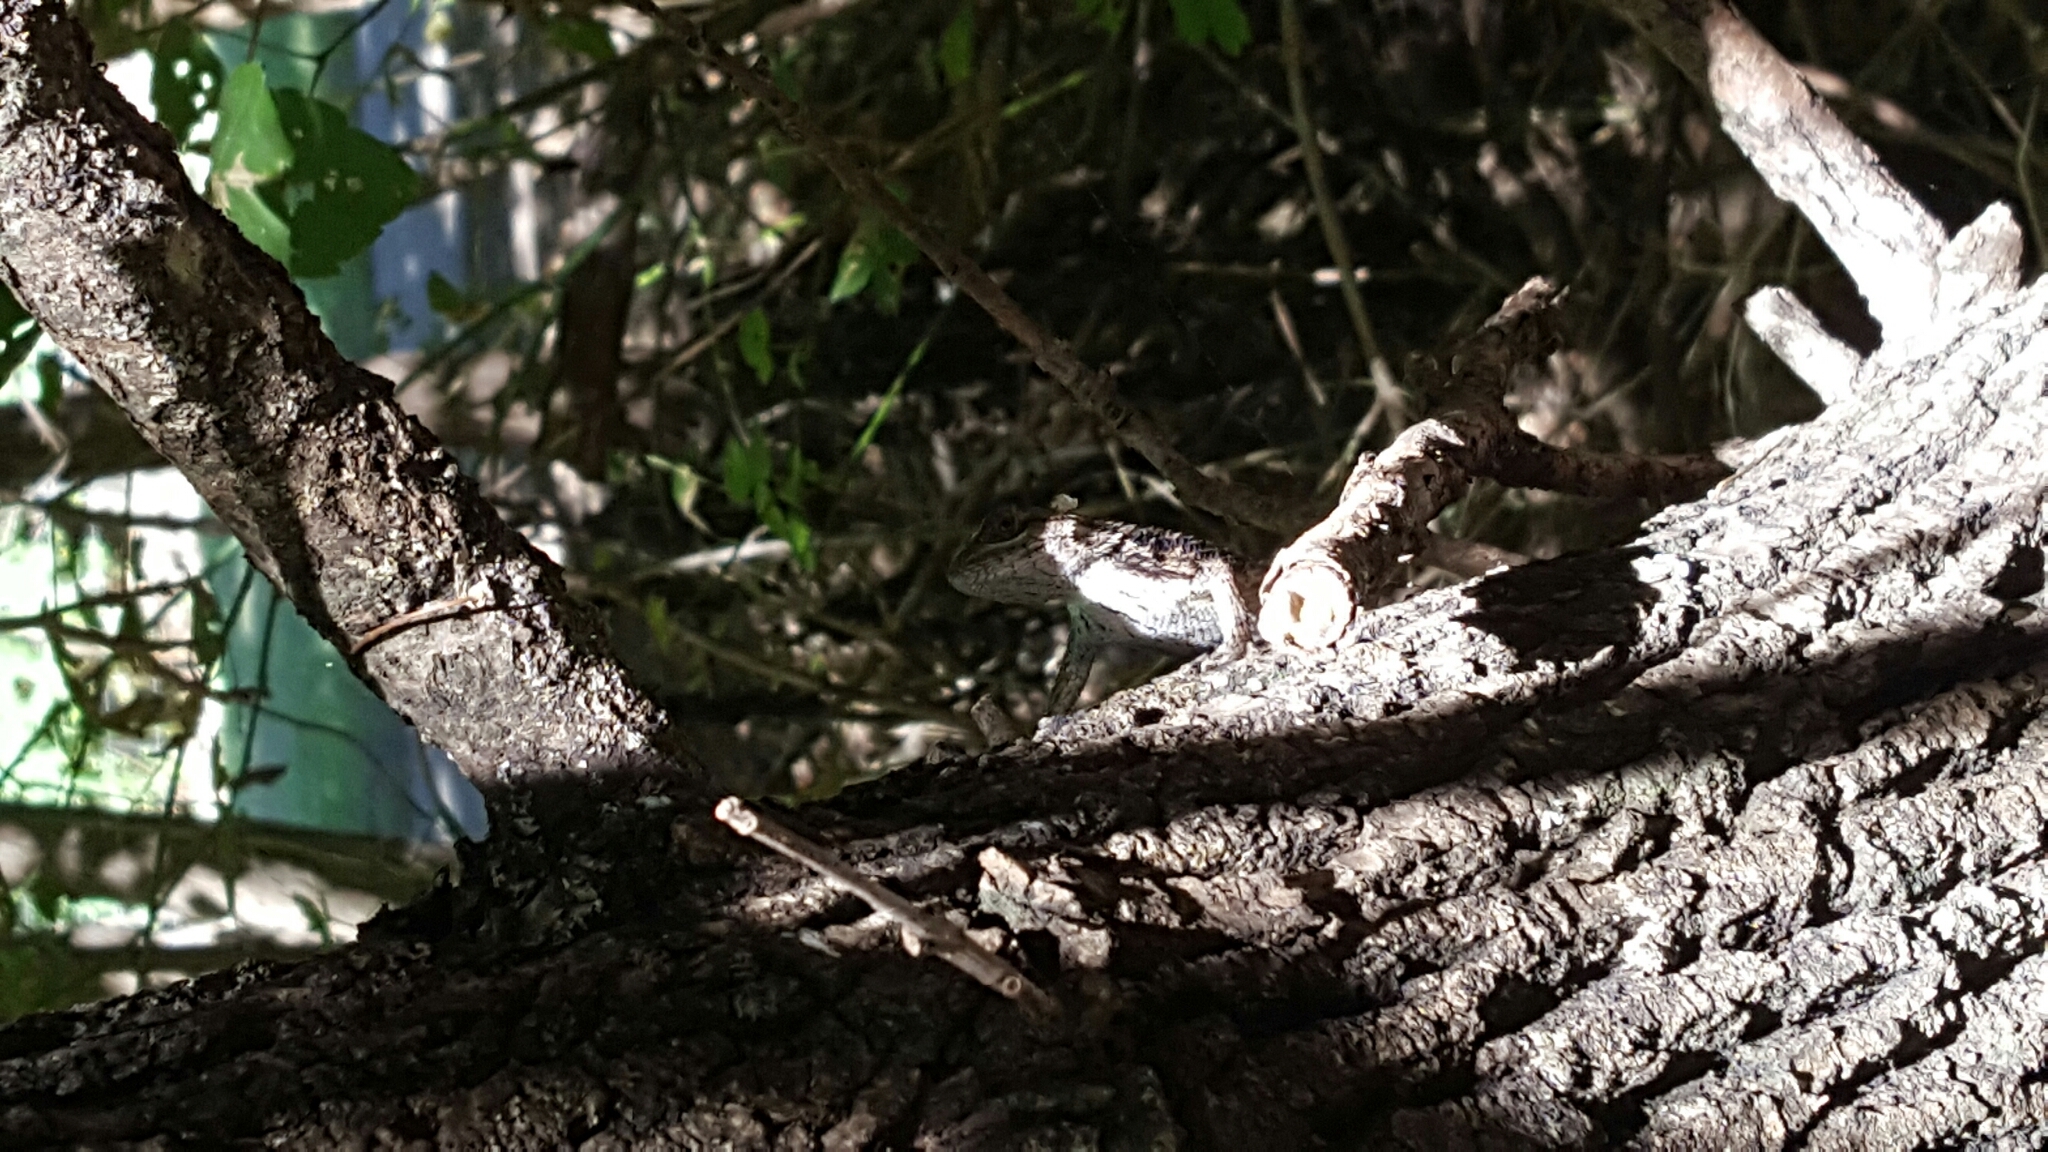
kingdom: Animalia
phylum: Chordata
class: Squamata
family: Phrynosomatidae
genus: Sceloporus
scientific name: Sceloporus olivaceus
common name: Texas spiny lizard
